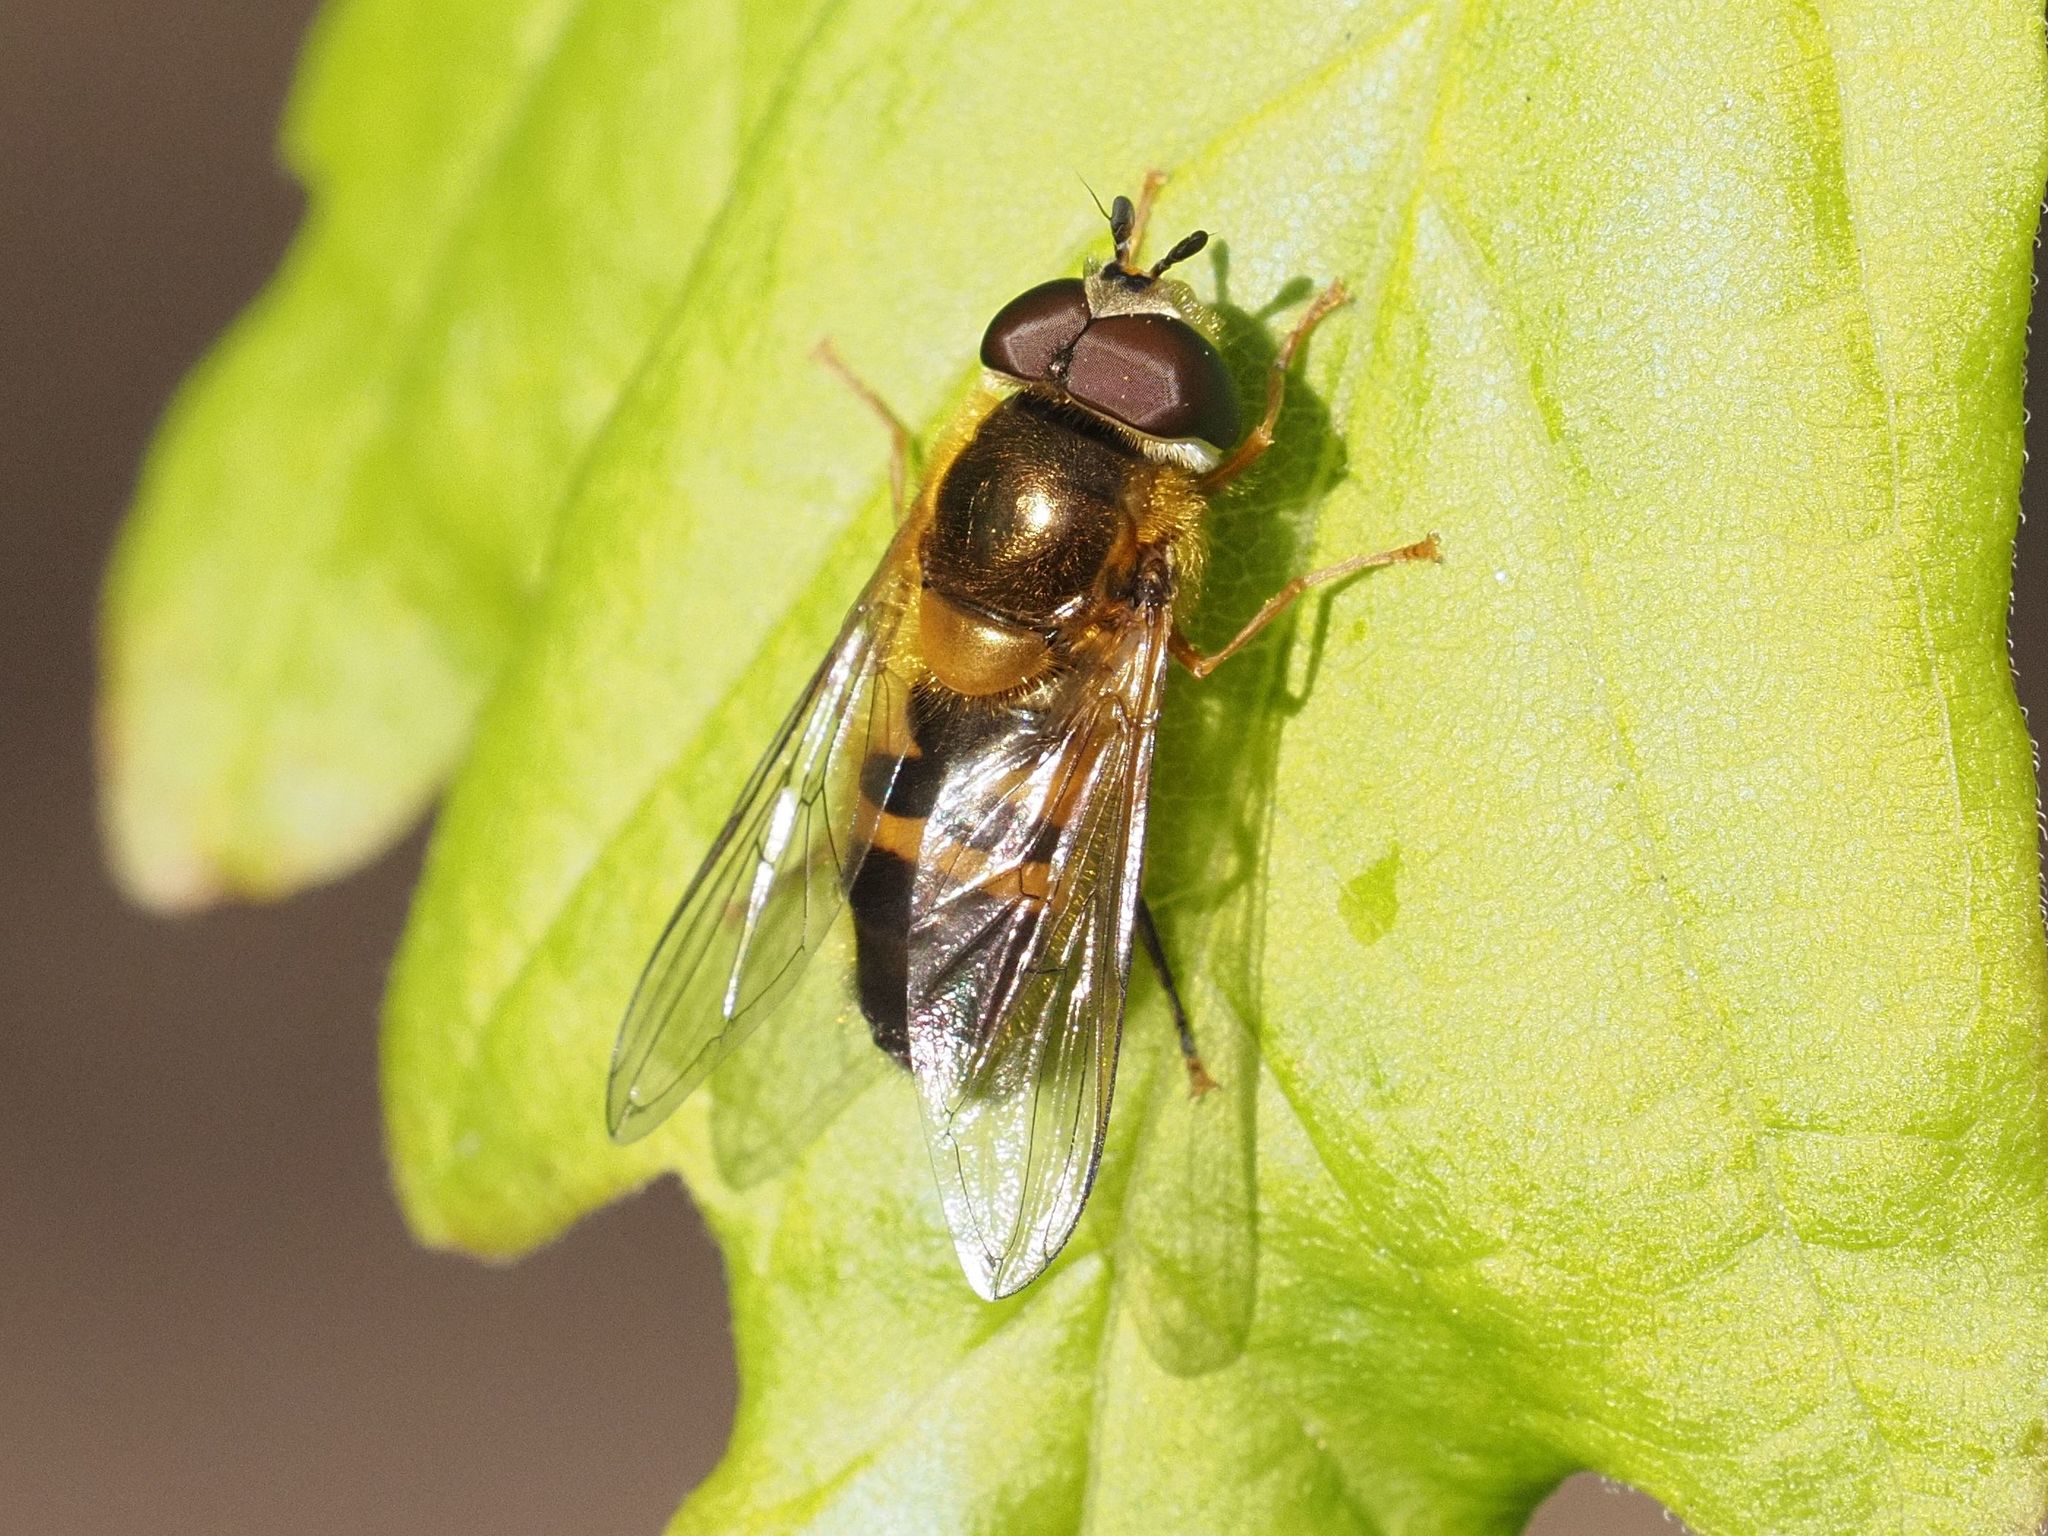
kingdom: Animalia
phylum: Arthropoda
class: Insecta
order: Diptera
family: Syrphidae
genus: Epistrophe
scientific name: Epistrophe eligans
